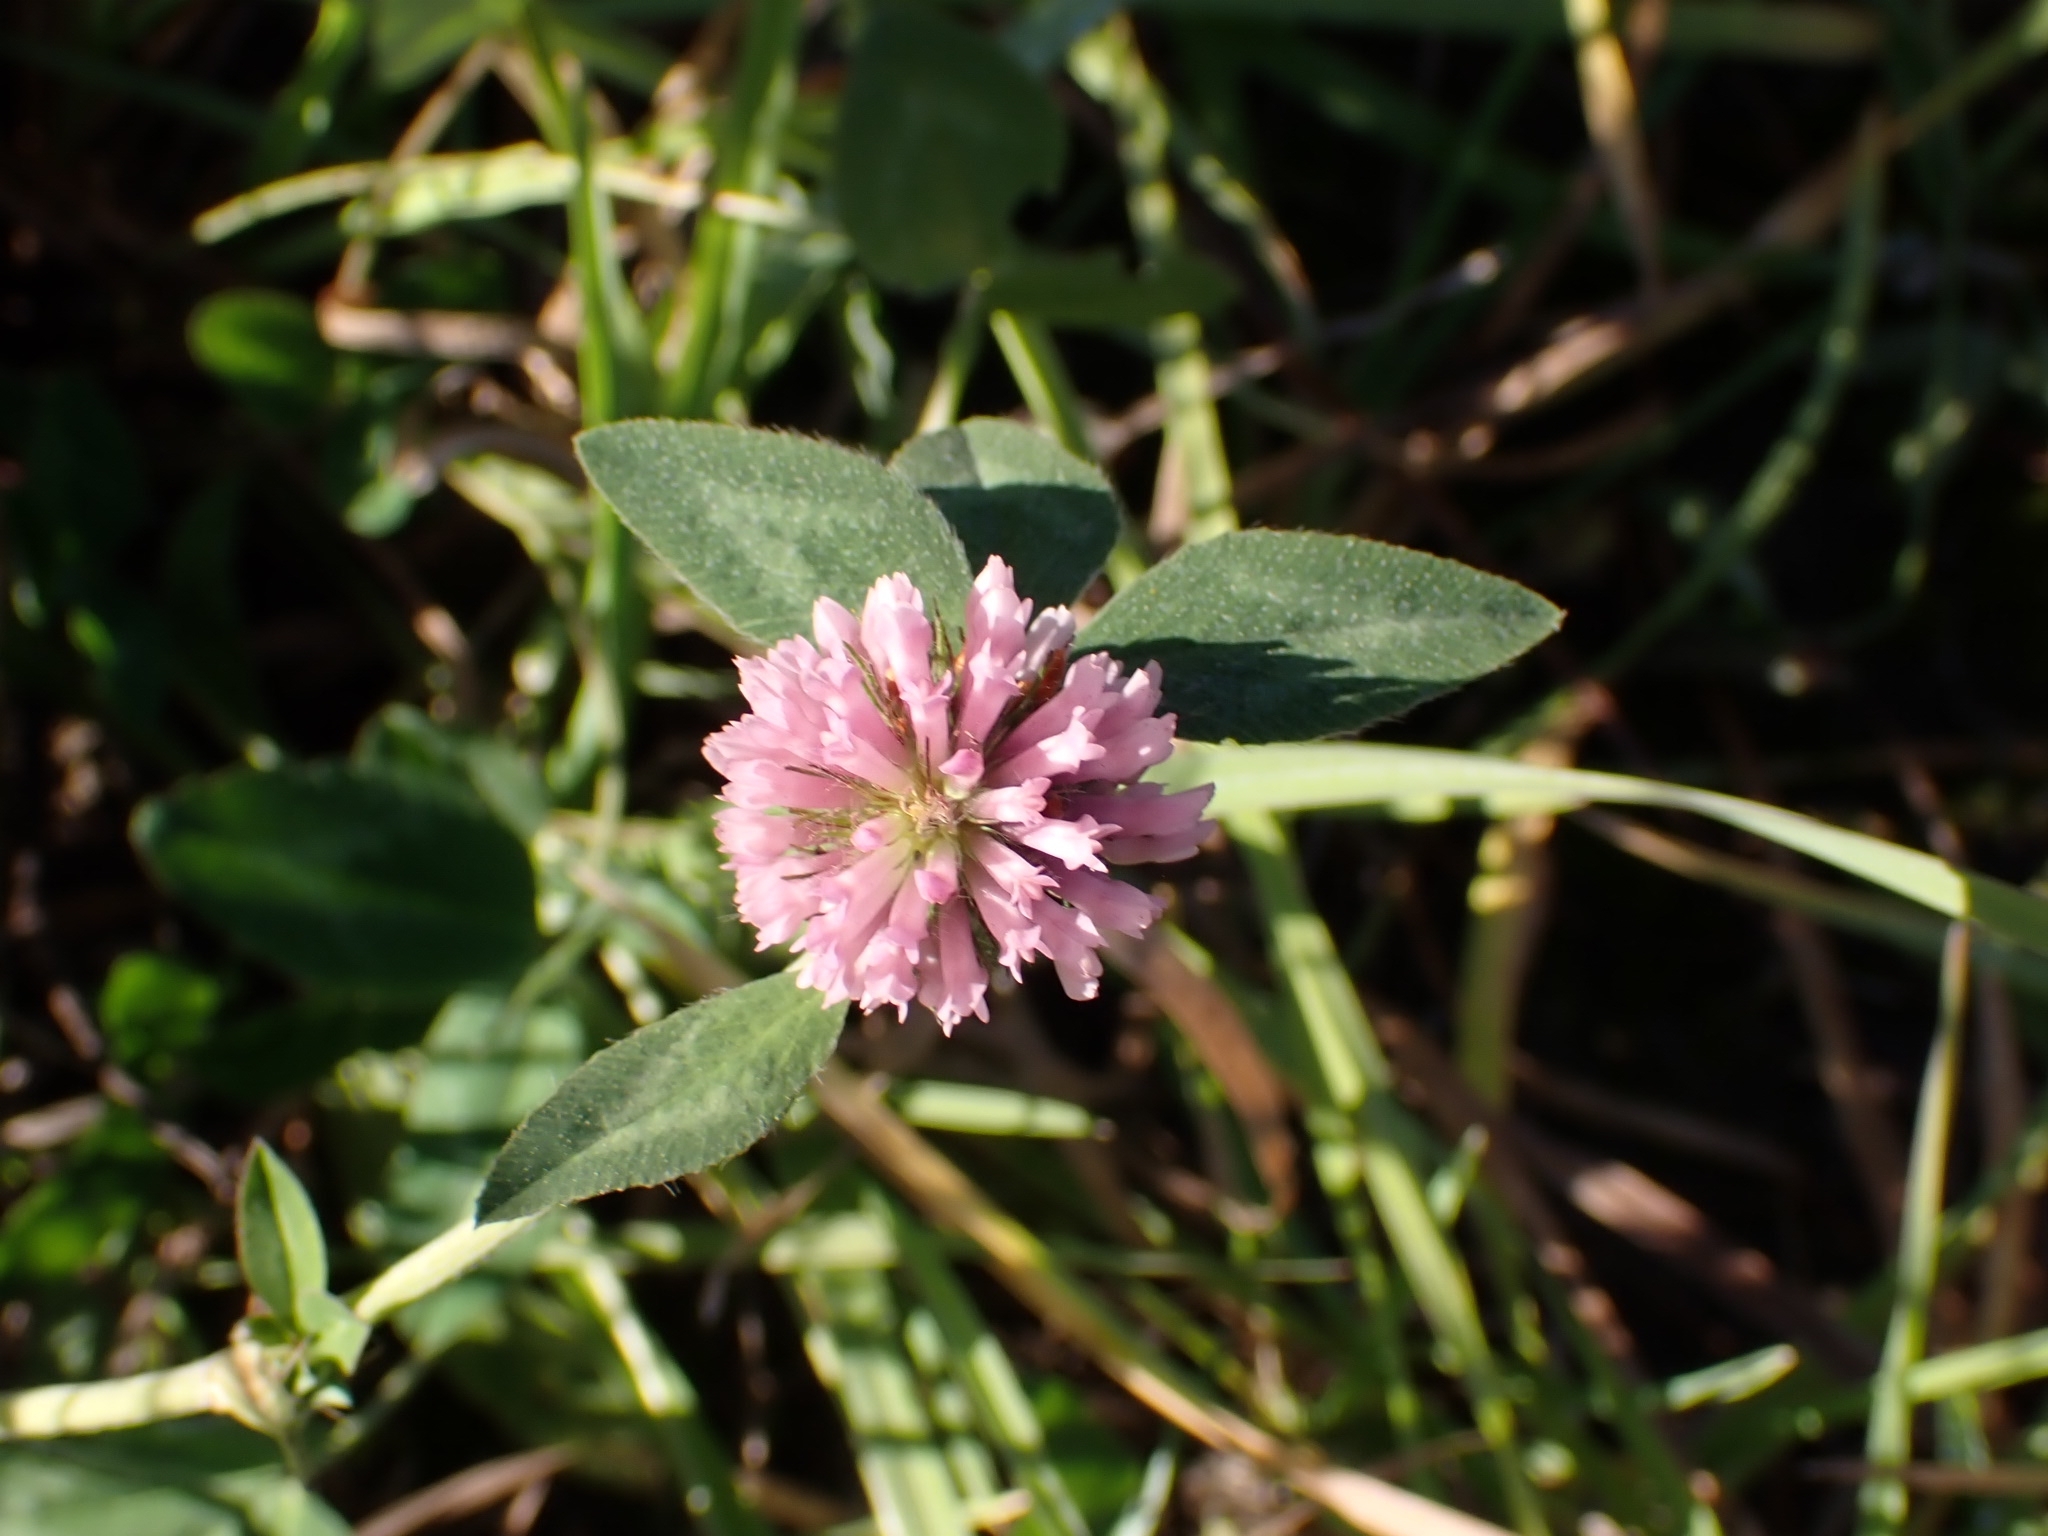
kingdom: Plantae
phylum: Tracheophyta
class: Magnoliopsida
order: Fabales
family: Fabaceae
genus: Trifolium
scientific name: Trifolium pratense
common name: Red clover
